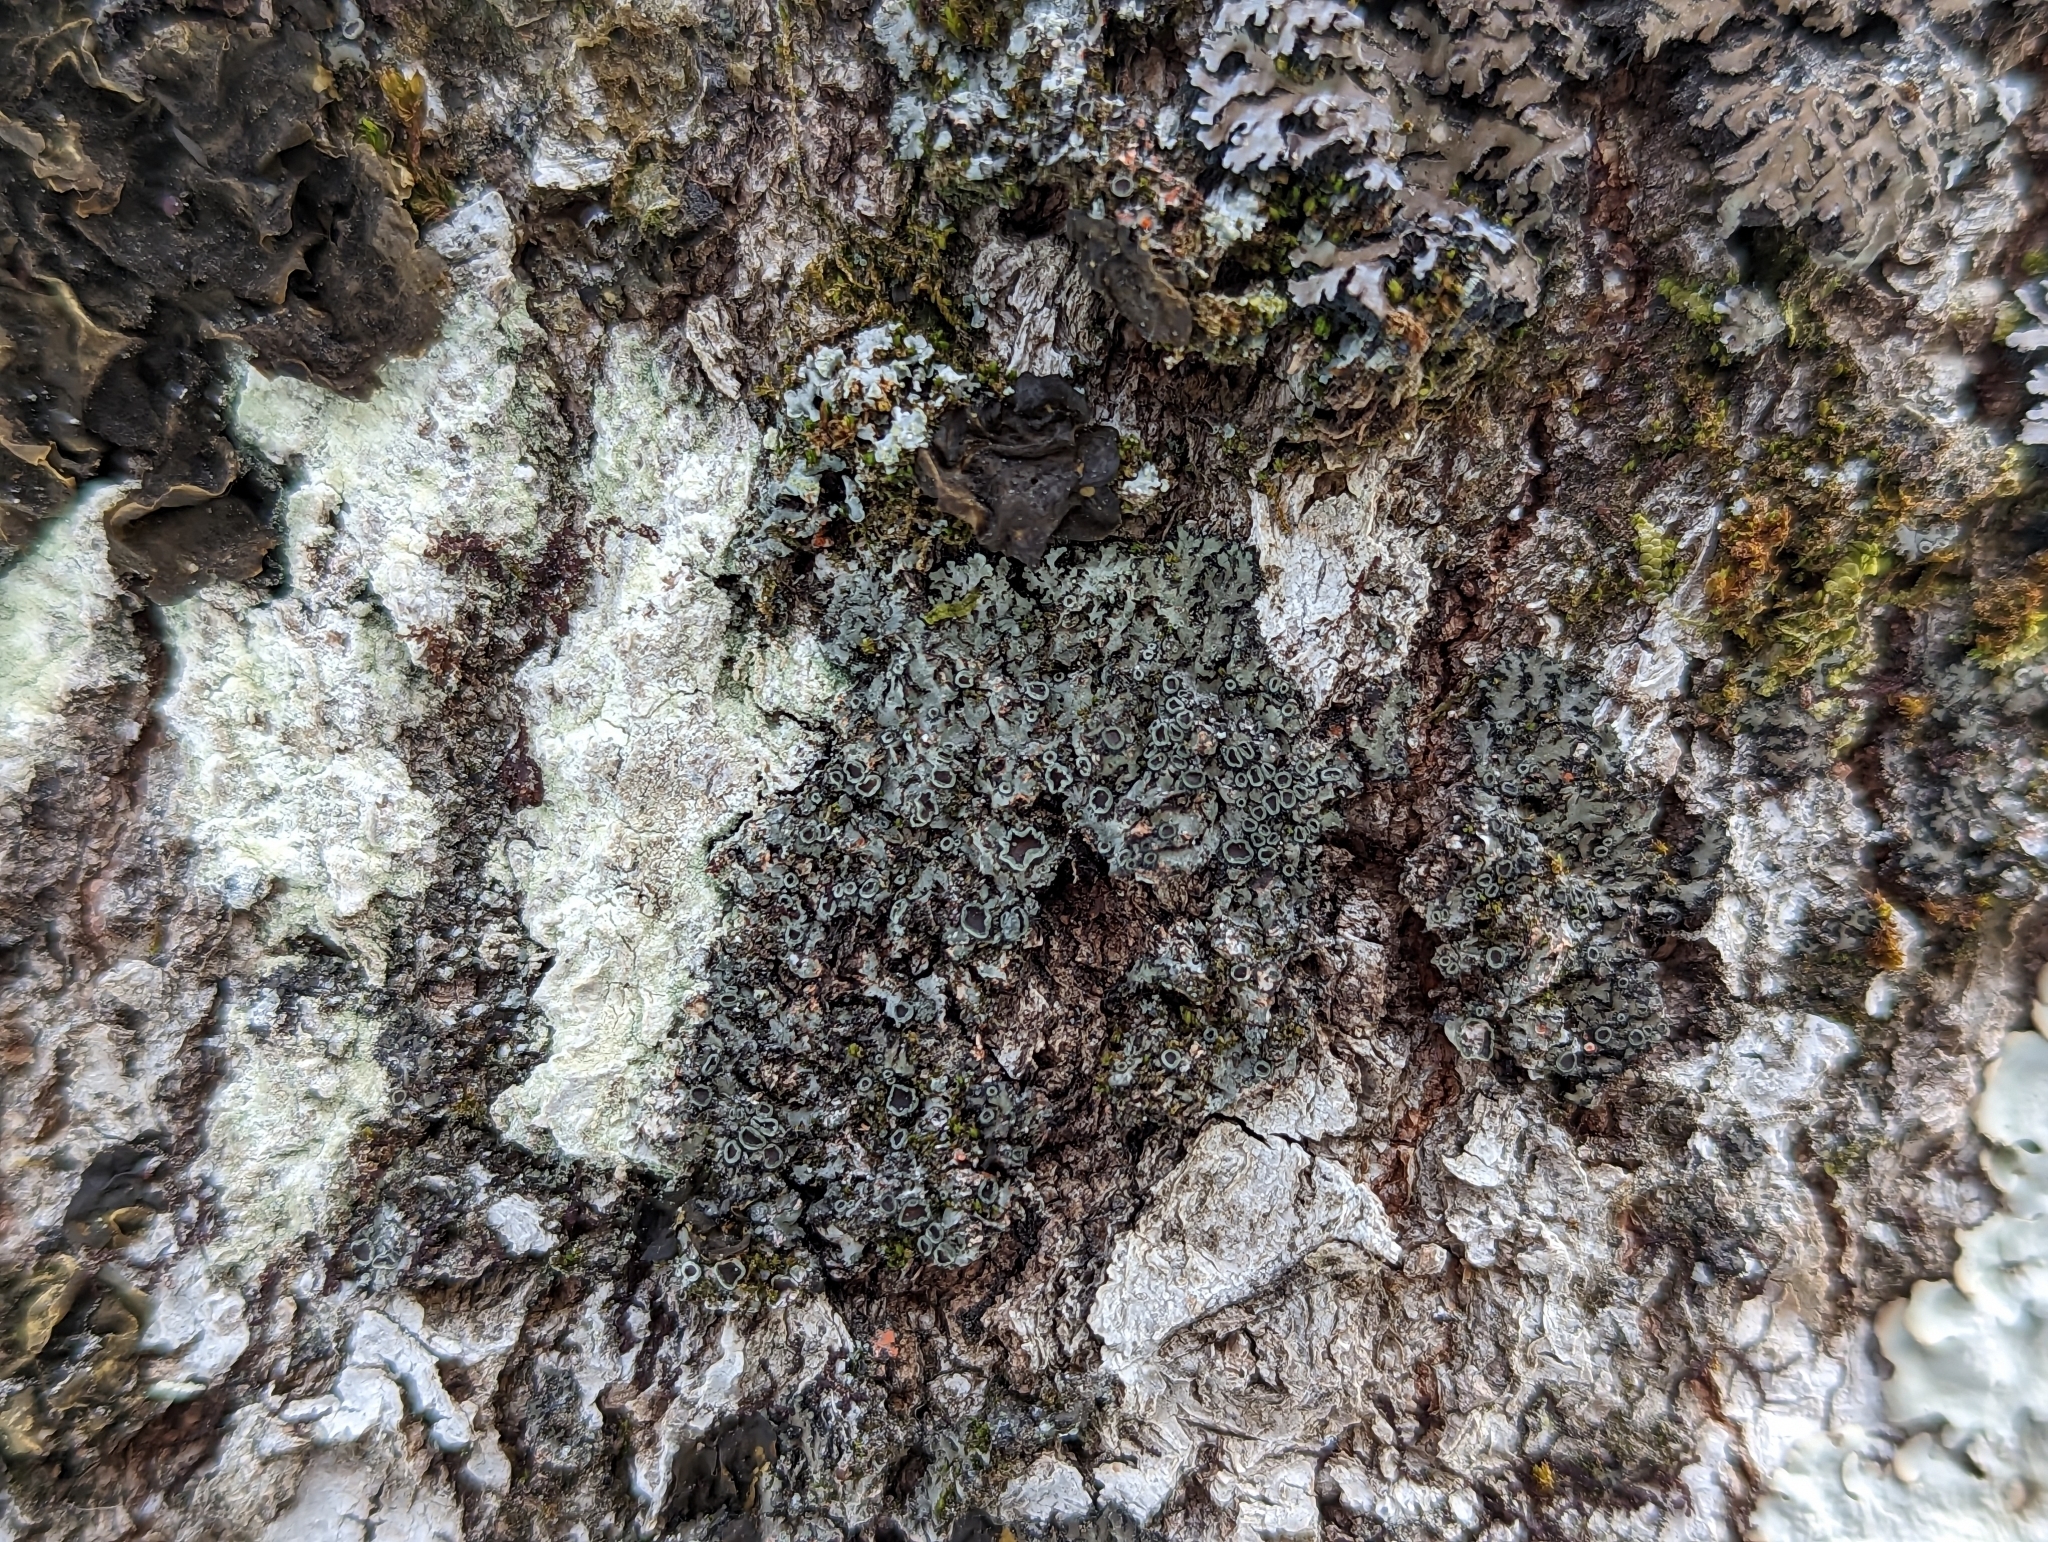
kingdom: Fungi
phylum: Ascomycota
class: Lecanoromycetes
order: Caliciales
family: Physciaceae
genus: Phaeophyscia
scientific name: Phaeophyscia rubropulchra
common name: Orange-cored shadow lichen
